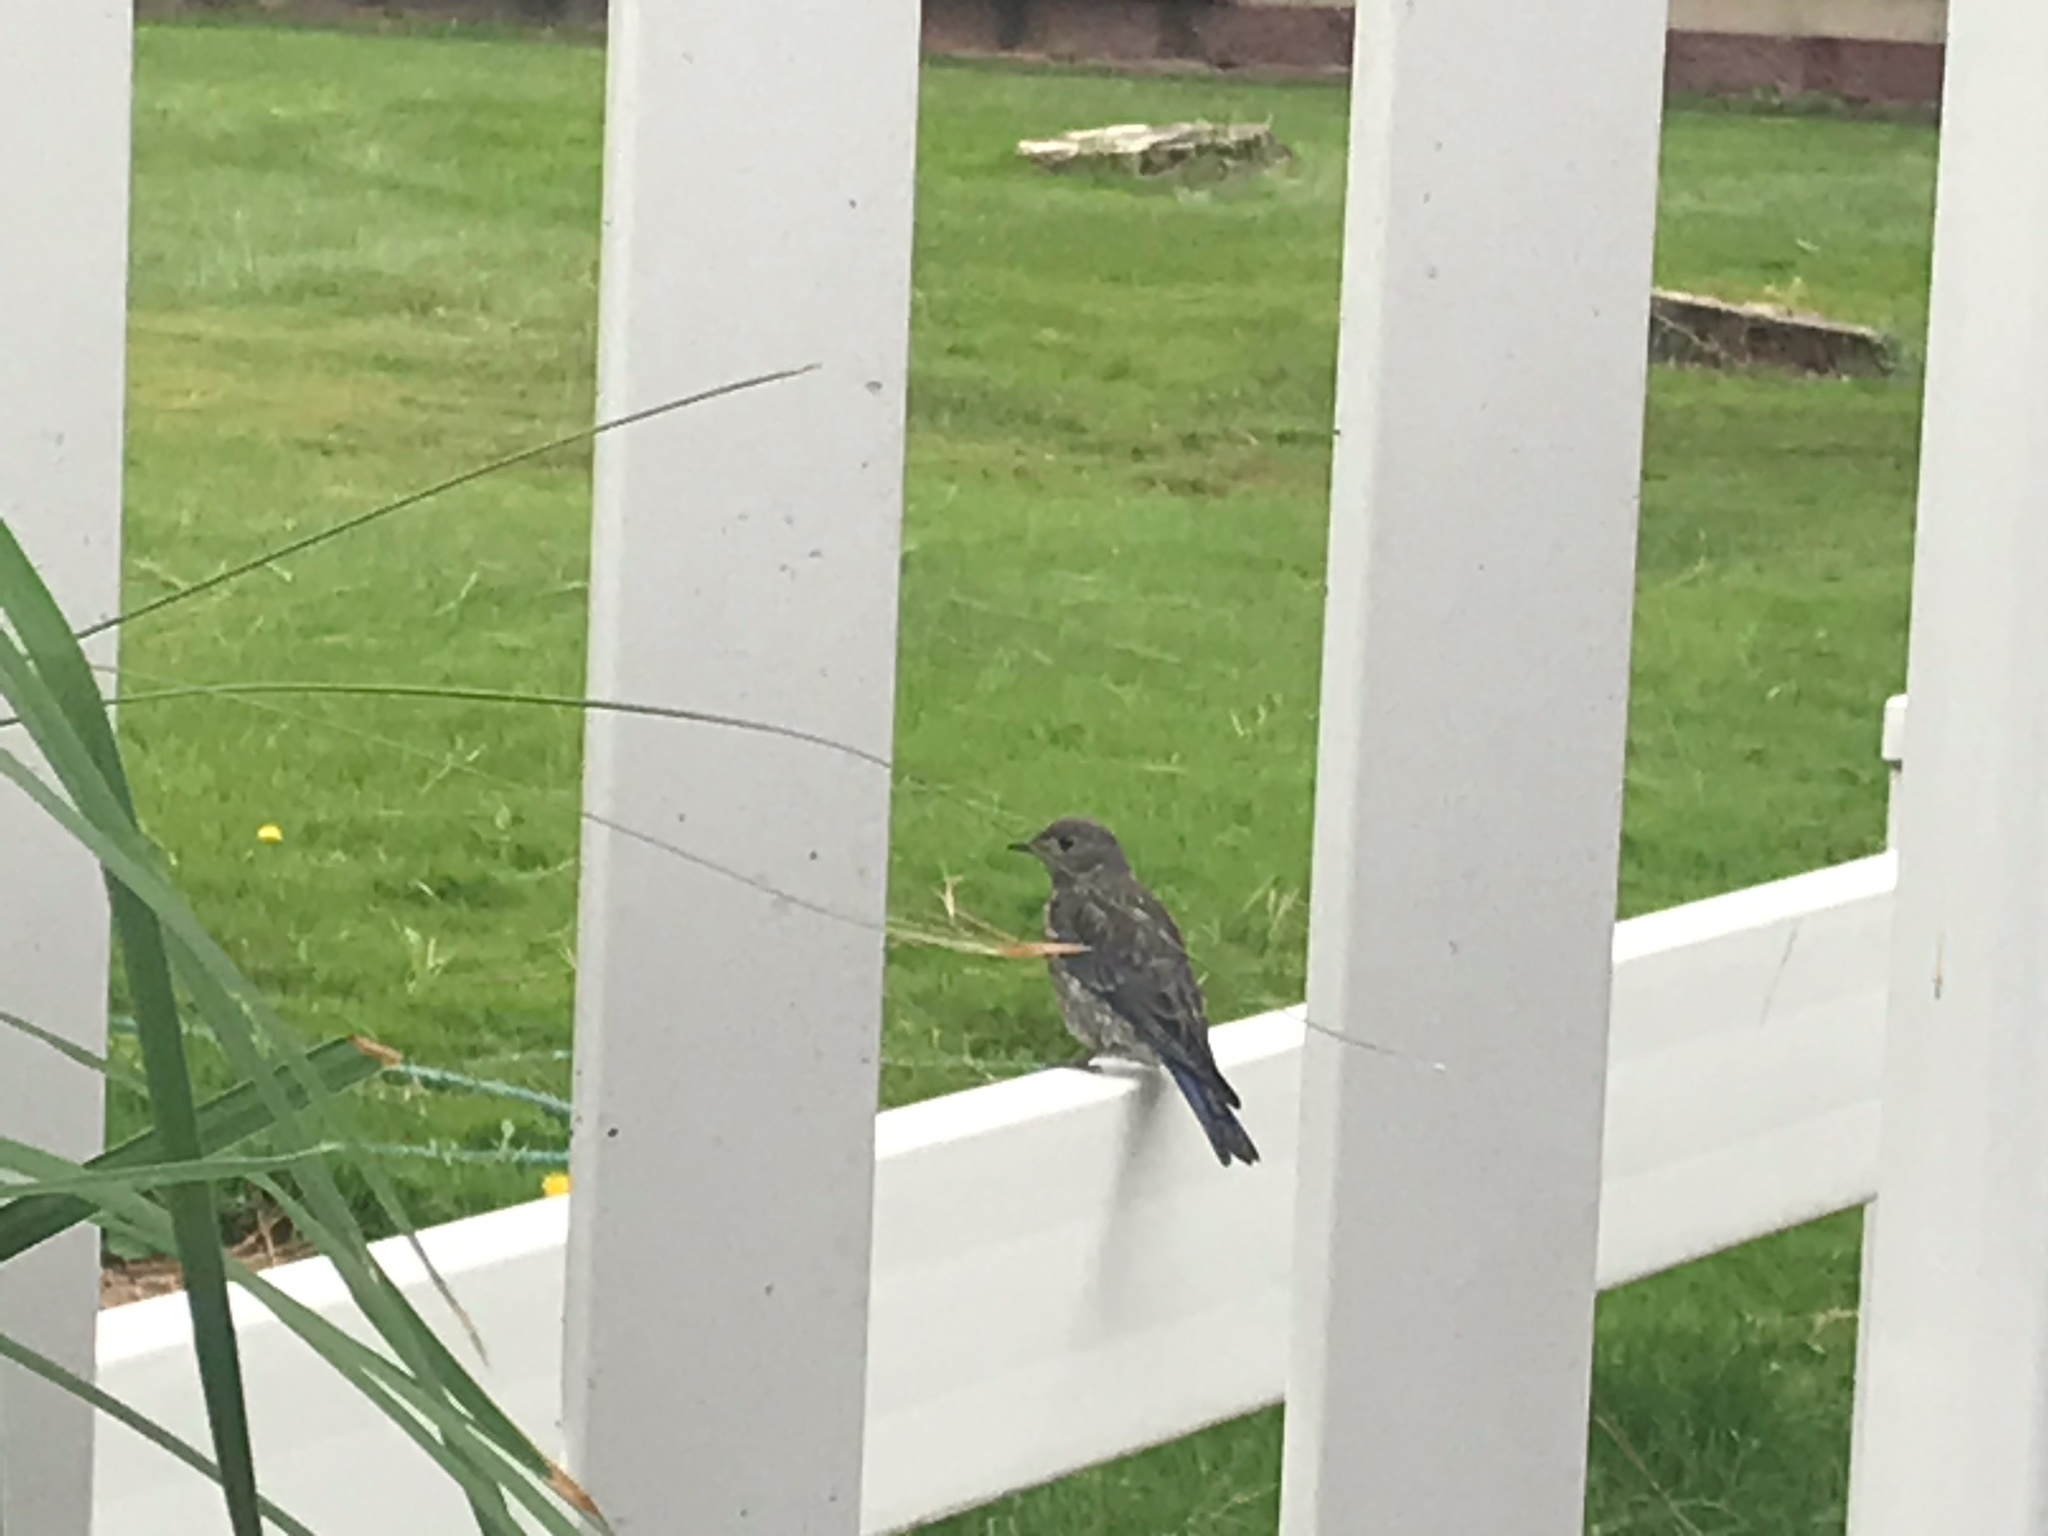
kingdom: Animalia
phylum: Chordata
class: Aves
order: Passeriformes
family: Turdidae
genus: Sialia
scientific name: Sialia mexicana
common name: Western bluebird
